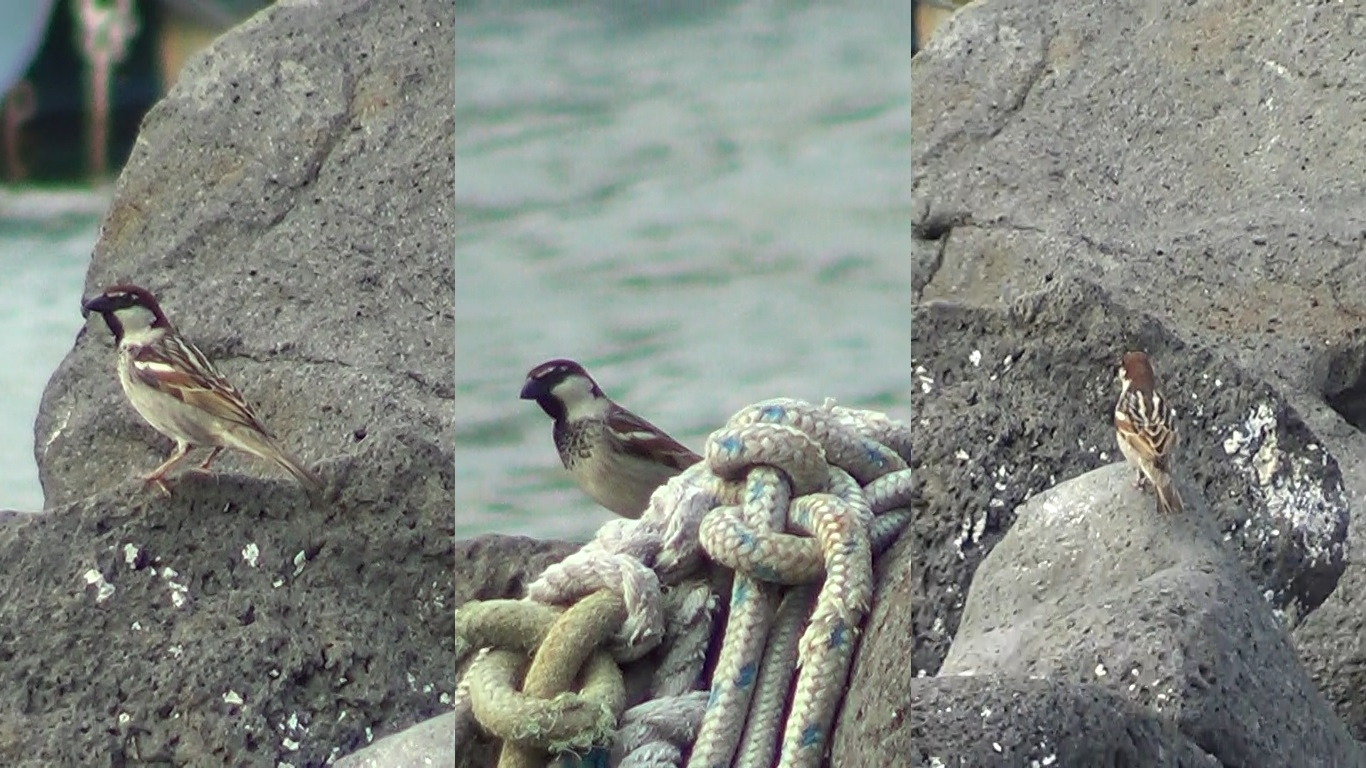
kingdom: Animalia
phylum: Chordata
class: Aves
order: Passeriformes
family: Passeridae
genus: Passer
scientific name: Passer italiae
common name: Italian sparrow
